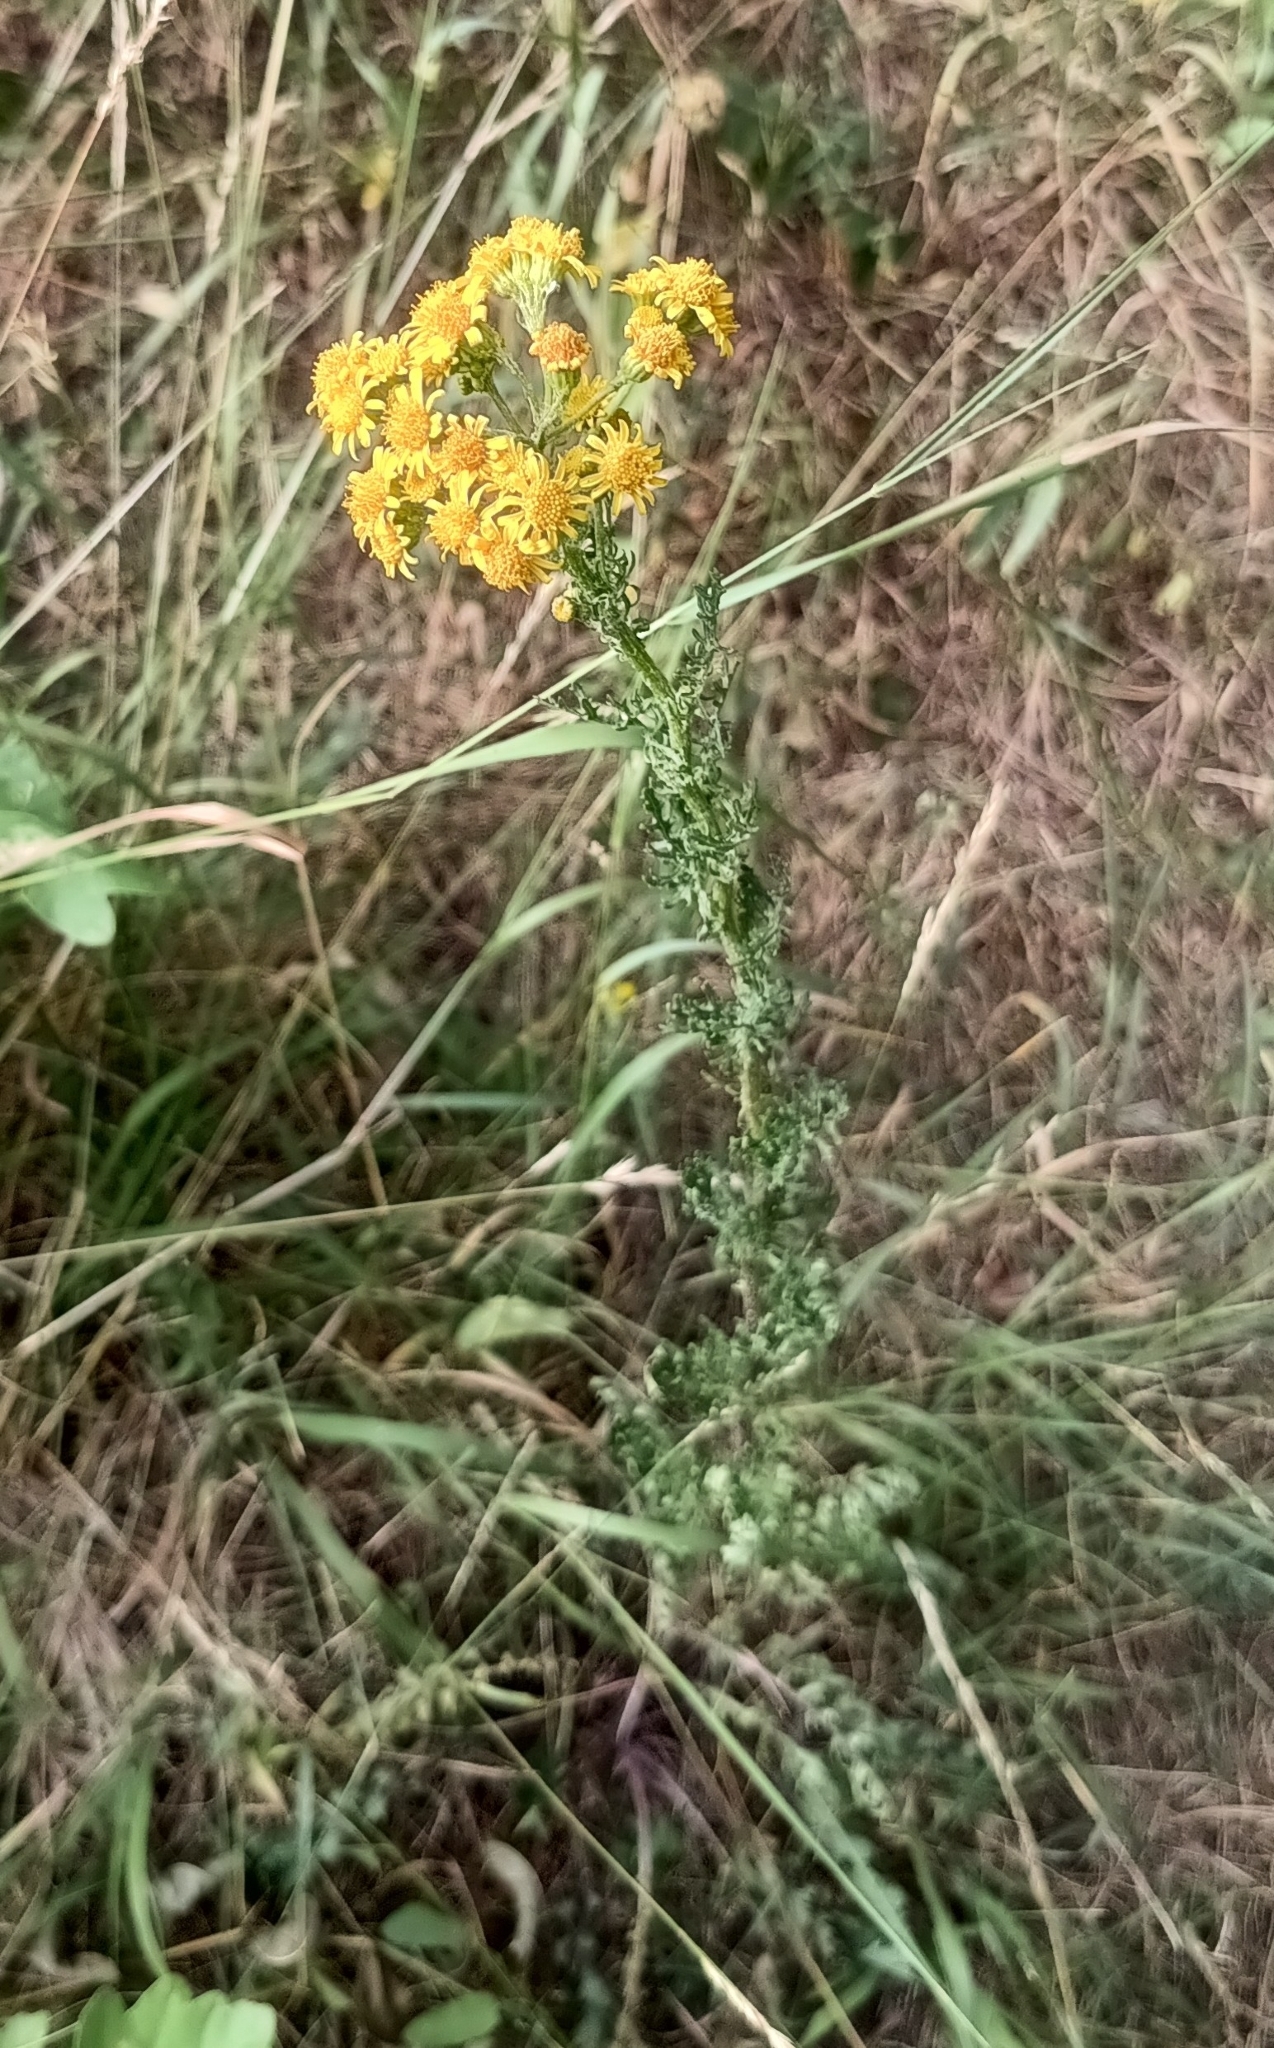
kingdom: Plantae
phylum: Tracheophyta
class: Magnoliopsida
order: Asterales
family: Asteraceae
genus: Jacobaea
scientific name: Jacobaea vulgaris
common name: Stinking willie
